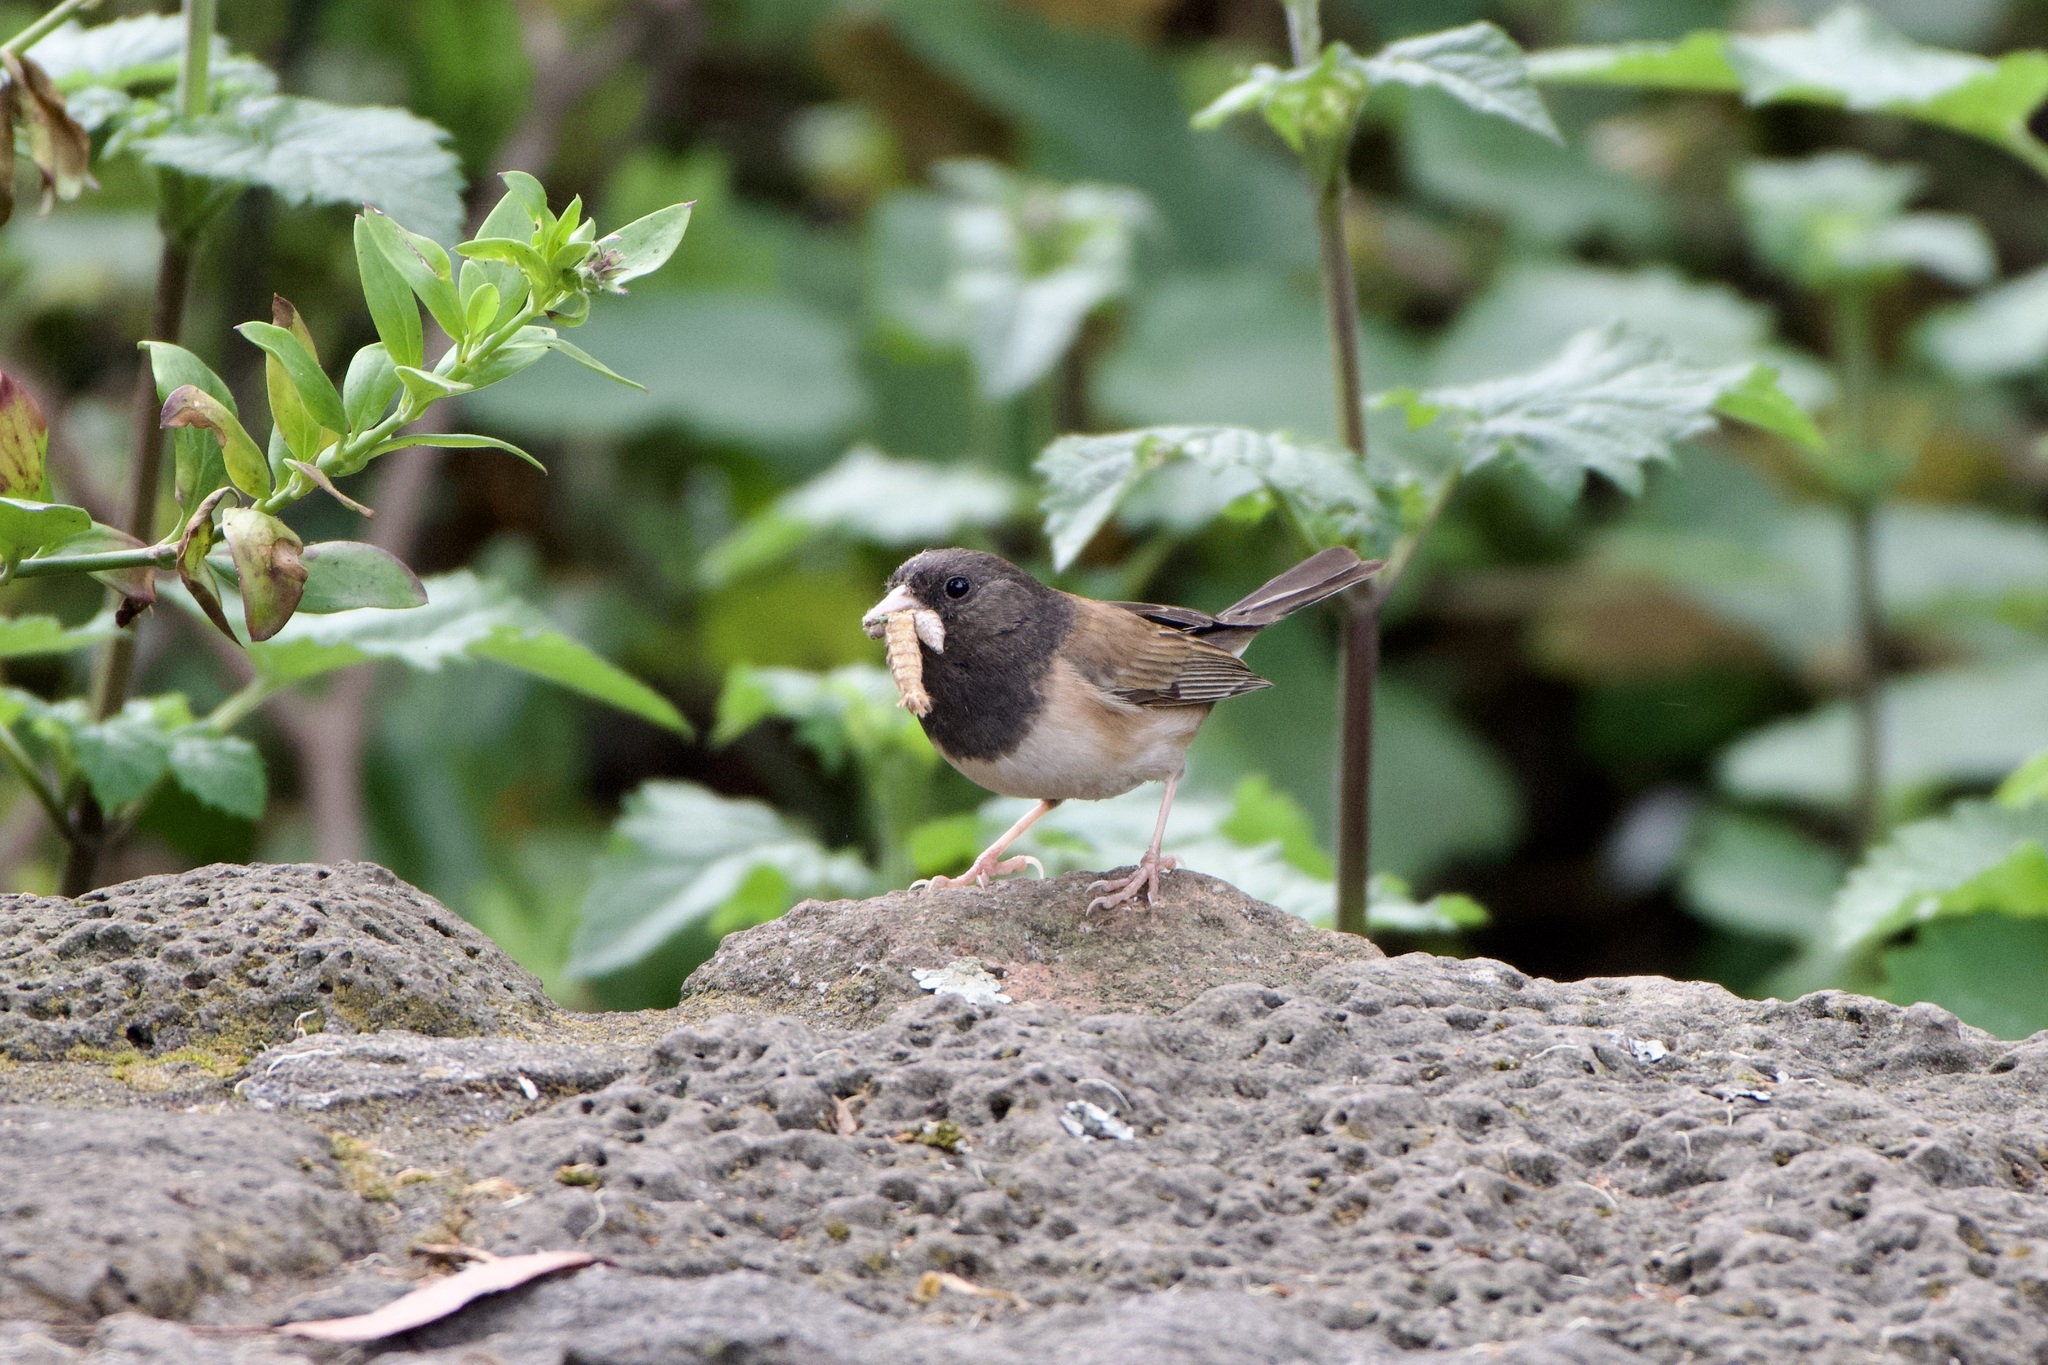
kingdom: Animalia
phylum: Chordata
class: Aves
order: Passeriformes
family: Passerellidae
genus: Junco
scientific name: Junco hyemalis
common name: Dark-eyed junco
